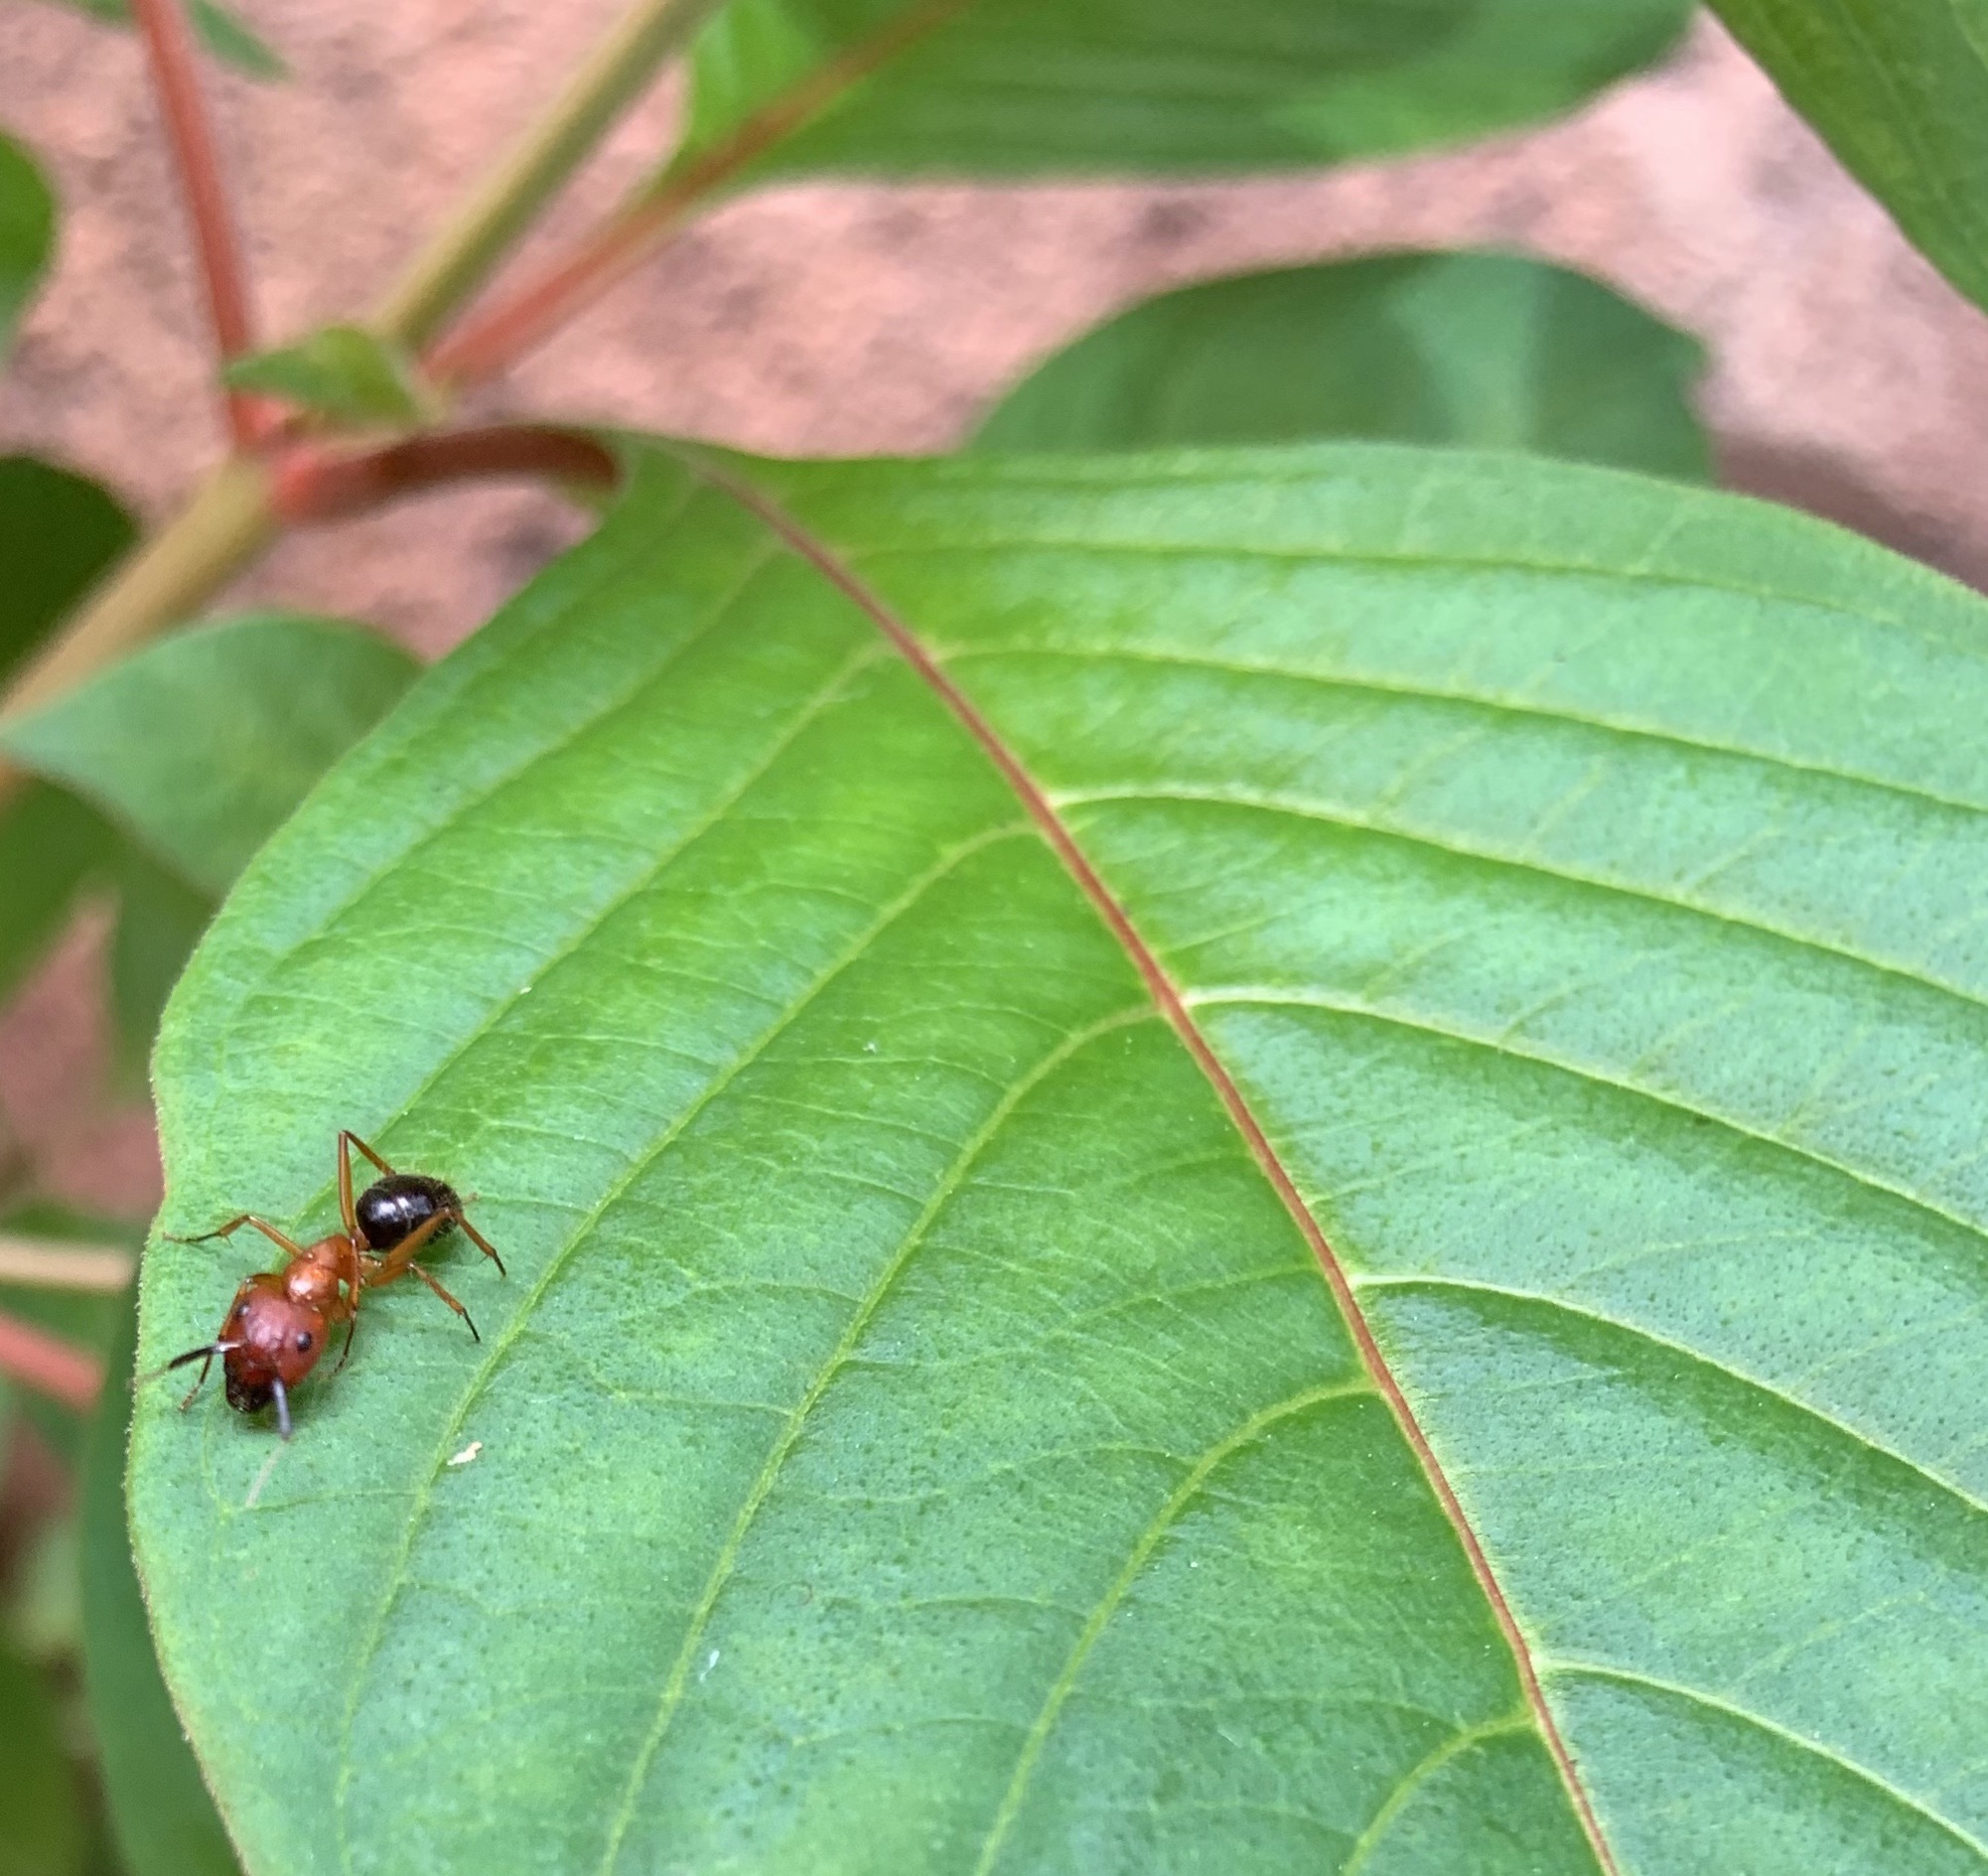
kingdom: Animalia
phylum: Arthropoda
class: Insecta
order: Hymenoptera
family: Formicidae
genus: Camponotus
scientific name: Camponotus floridanus
